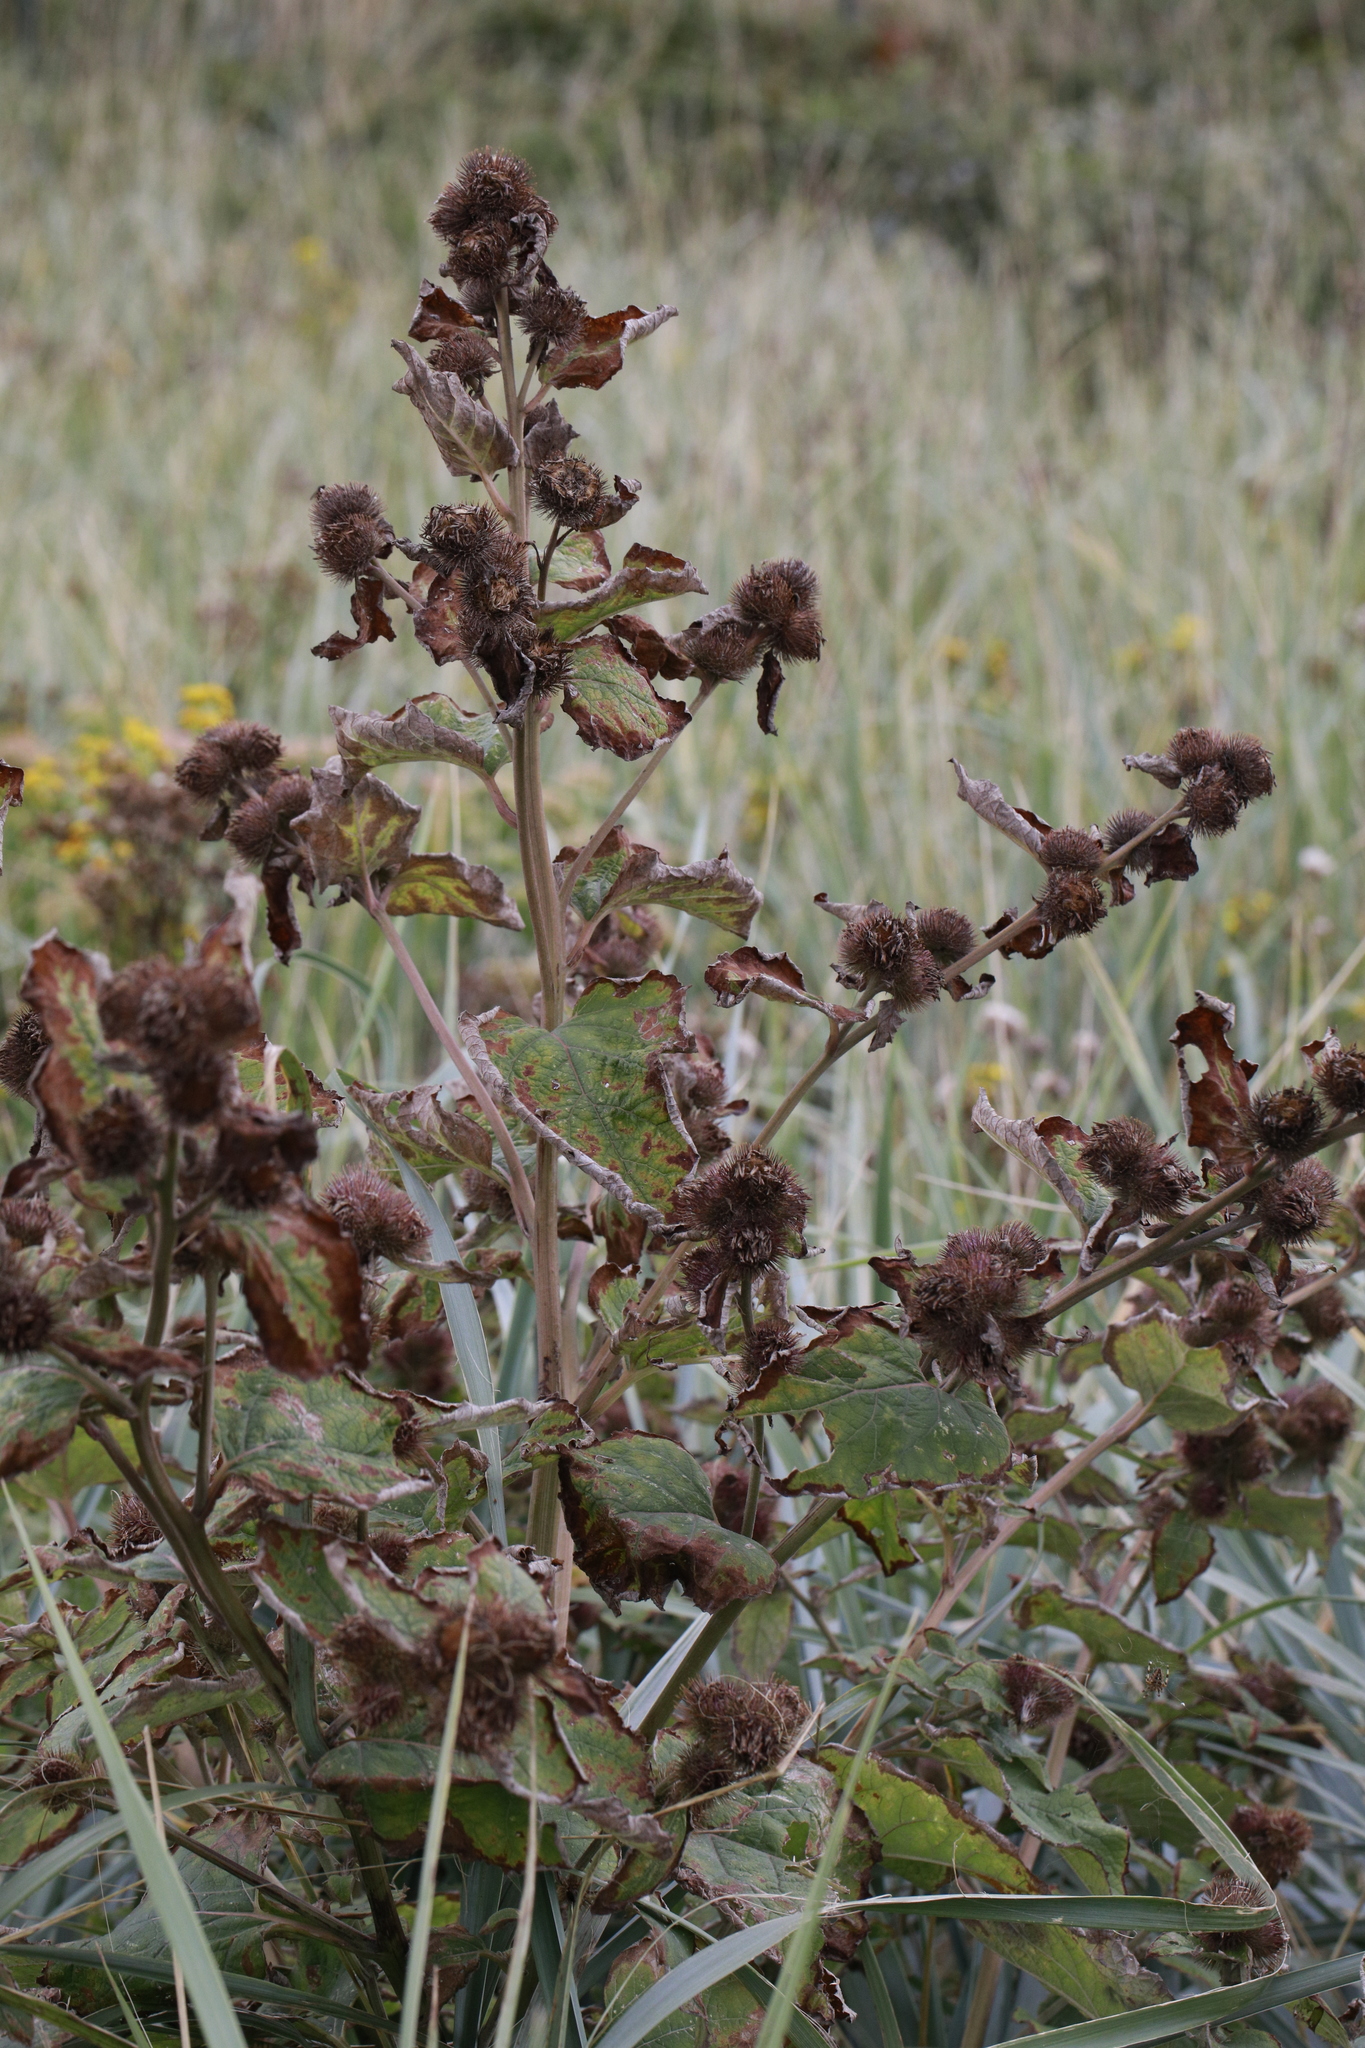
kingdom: Plantae
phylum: Tracheophyta
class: Magnoliopsida
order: Asterales
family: Asteraceae
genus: Arctium
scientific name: Arctium minus
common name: Lesser burdock
